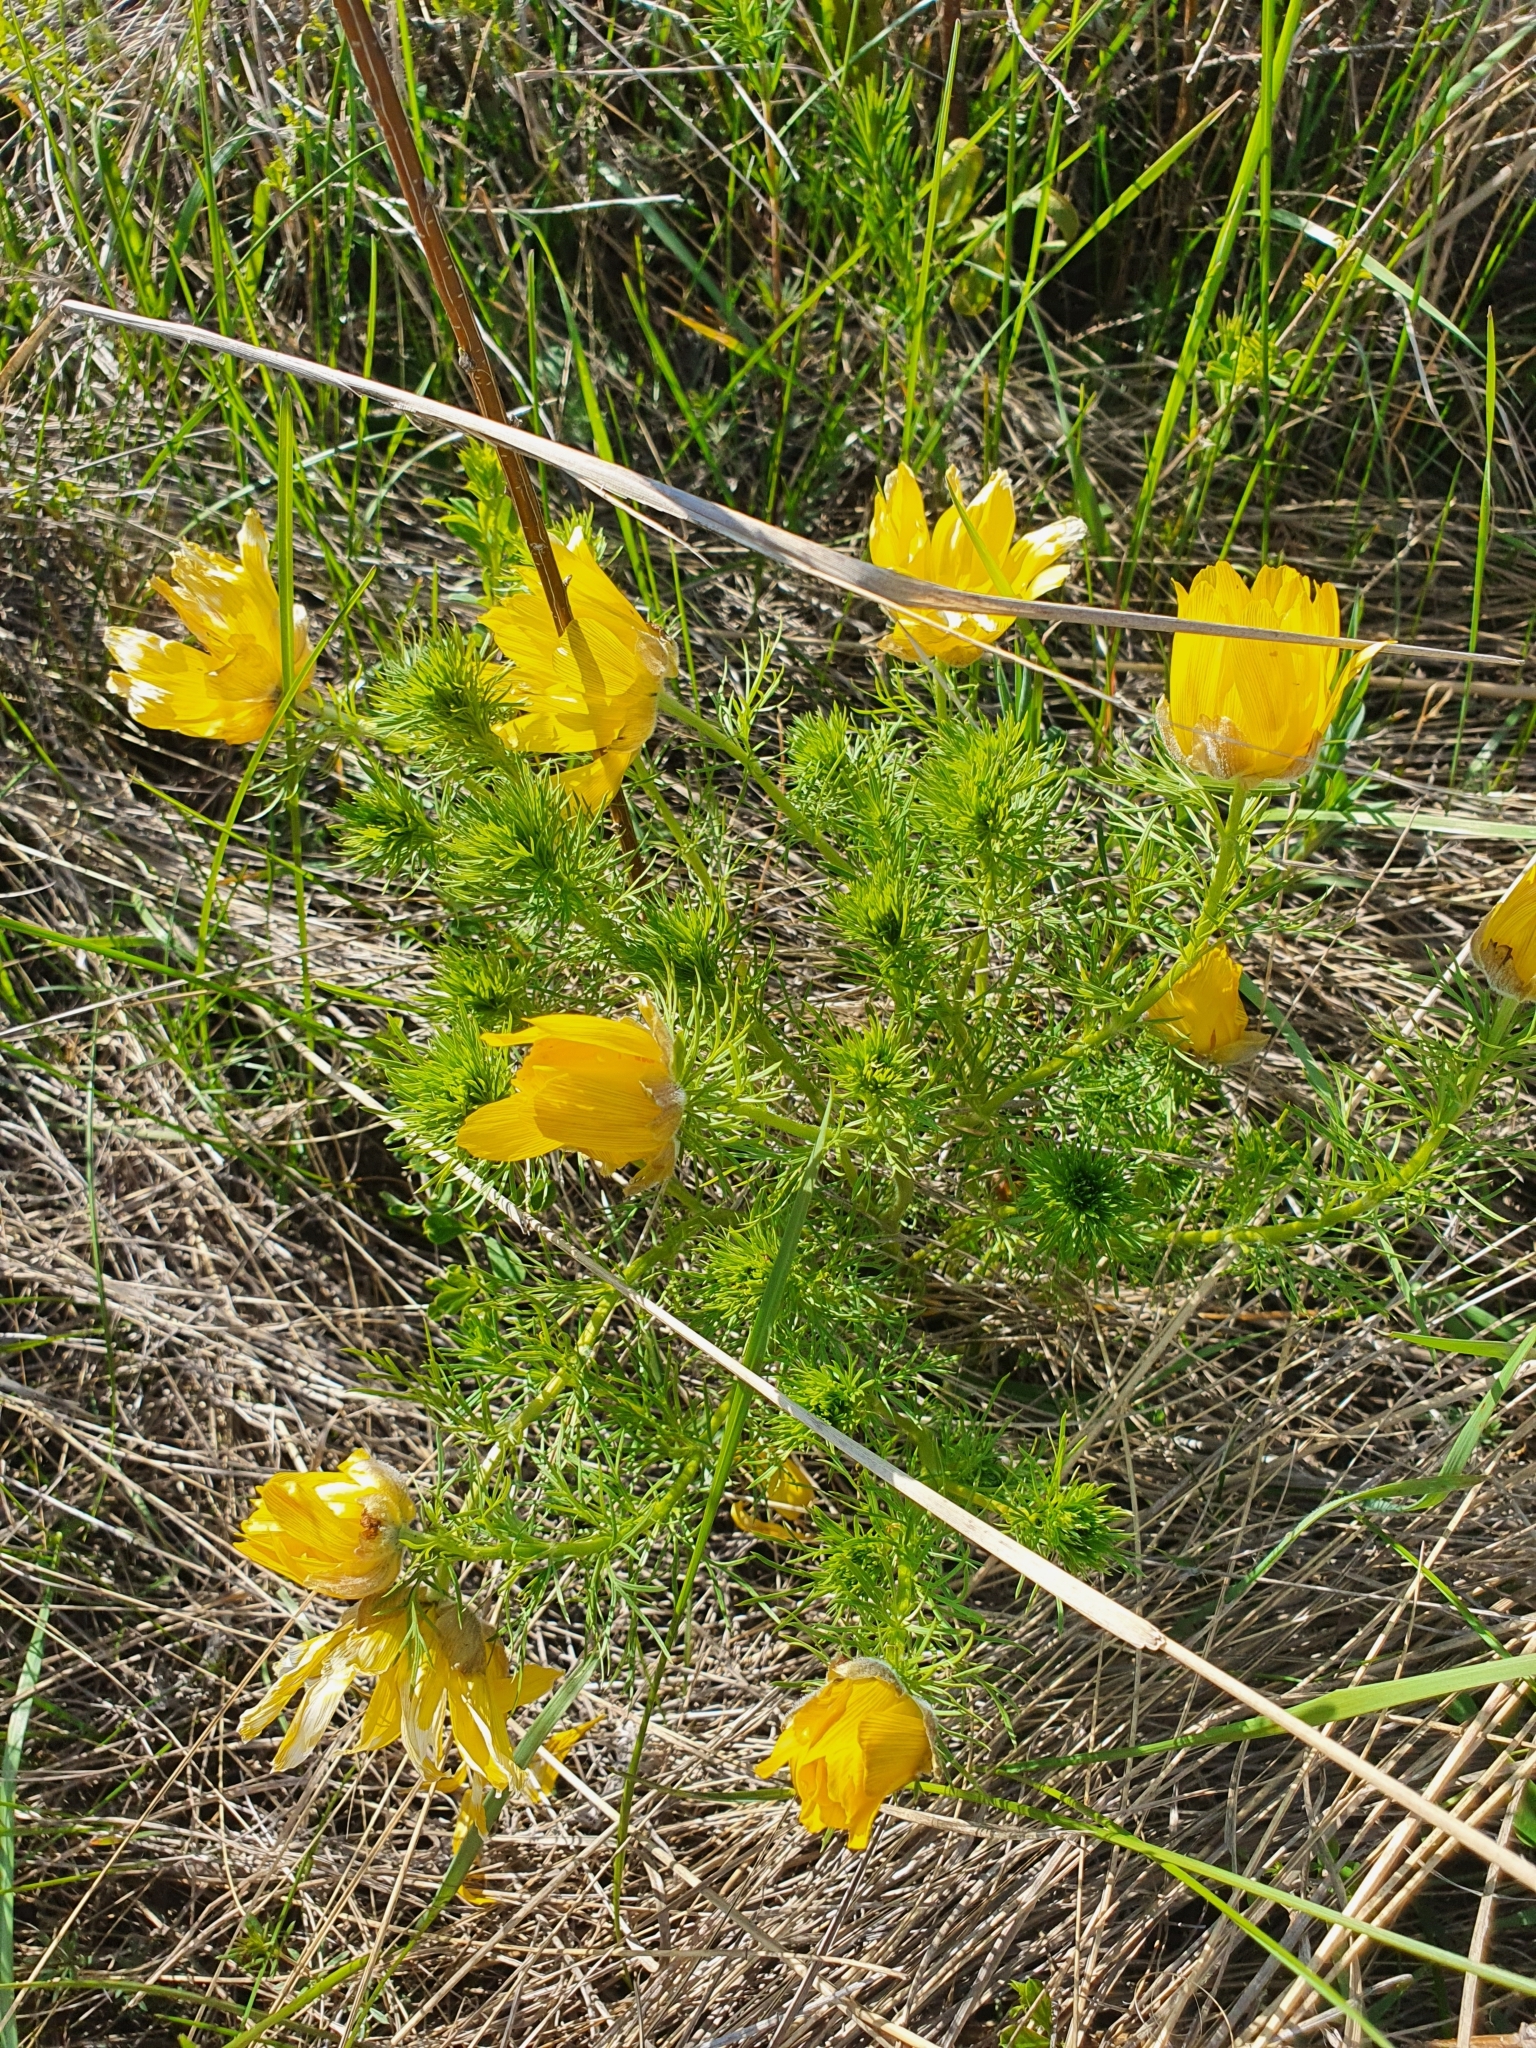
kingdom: Plantae
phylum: Tracheophyta
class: Magnoliopsida
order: Ranunculales
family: Ranunculaceae
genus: Adonis
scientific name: Adonis vernalis
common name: Yellow pheasants-eye
